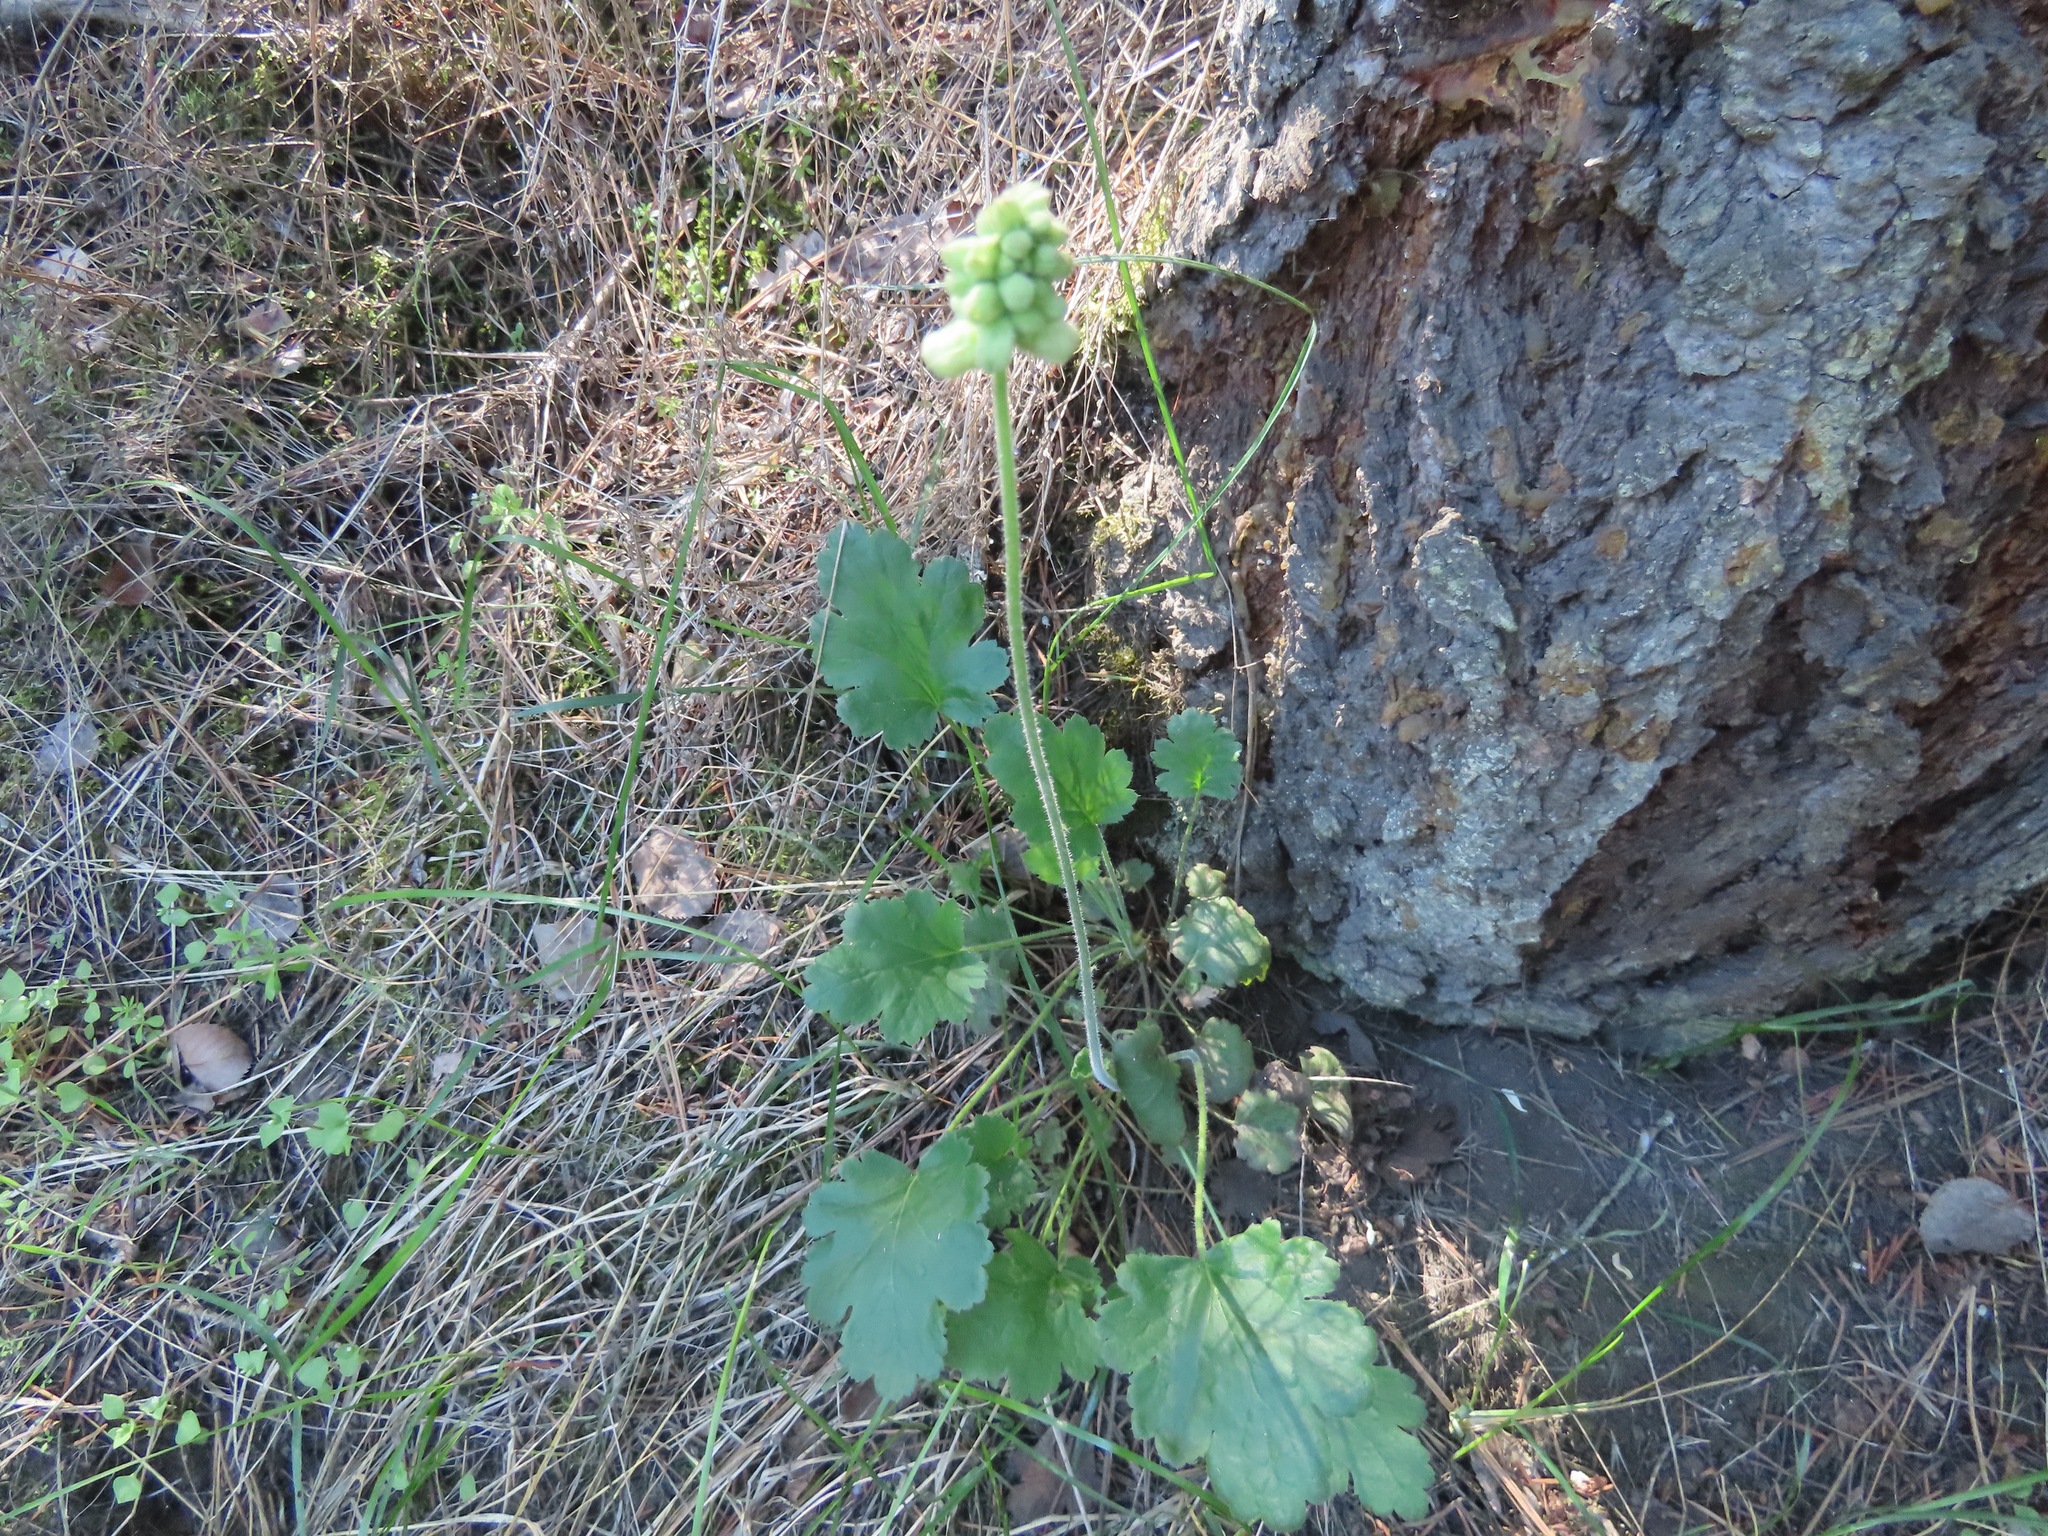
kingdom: Plantae
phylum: Tracheophyta
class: Magnoliopsida
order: Saxifragales
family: Saxifragaceae
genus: Heuchera
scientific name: Heuchera cylindrica
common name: Mat alumroot
